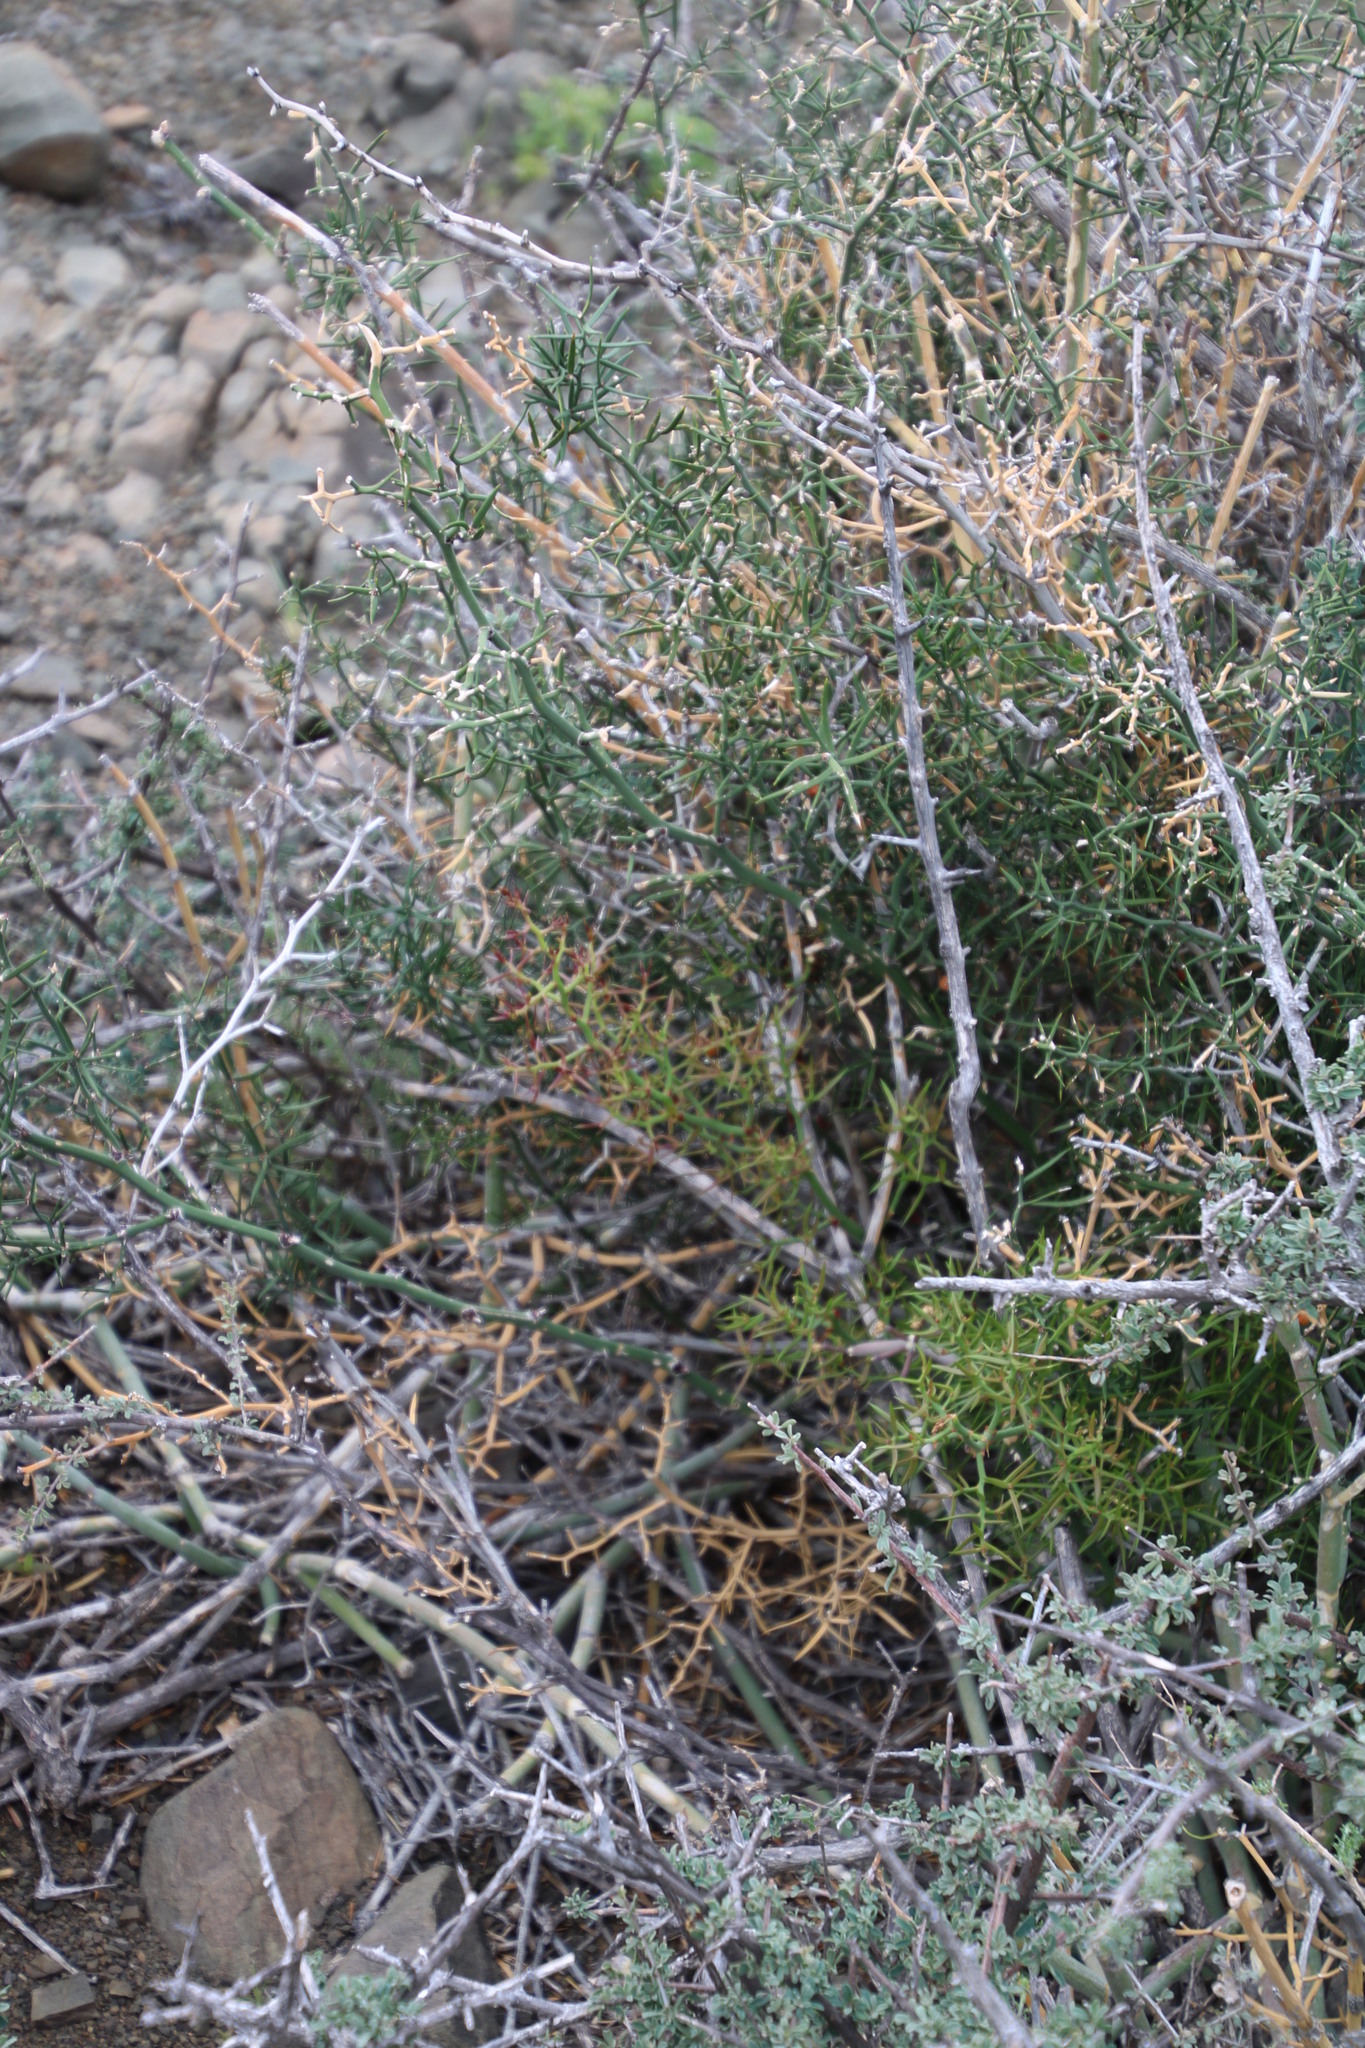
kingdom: Plantae
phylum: Tracheophyta
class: Liliopsida
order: Asparagales
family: Asparagaceae
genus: Asparagus
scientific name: Asparagus striatus
